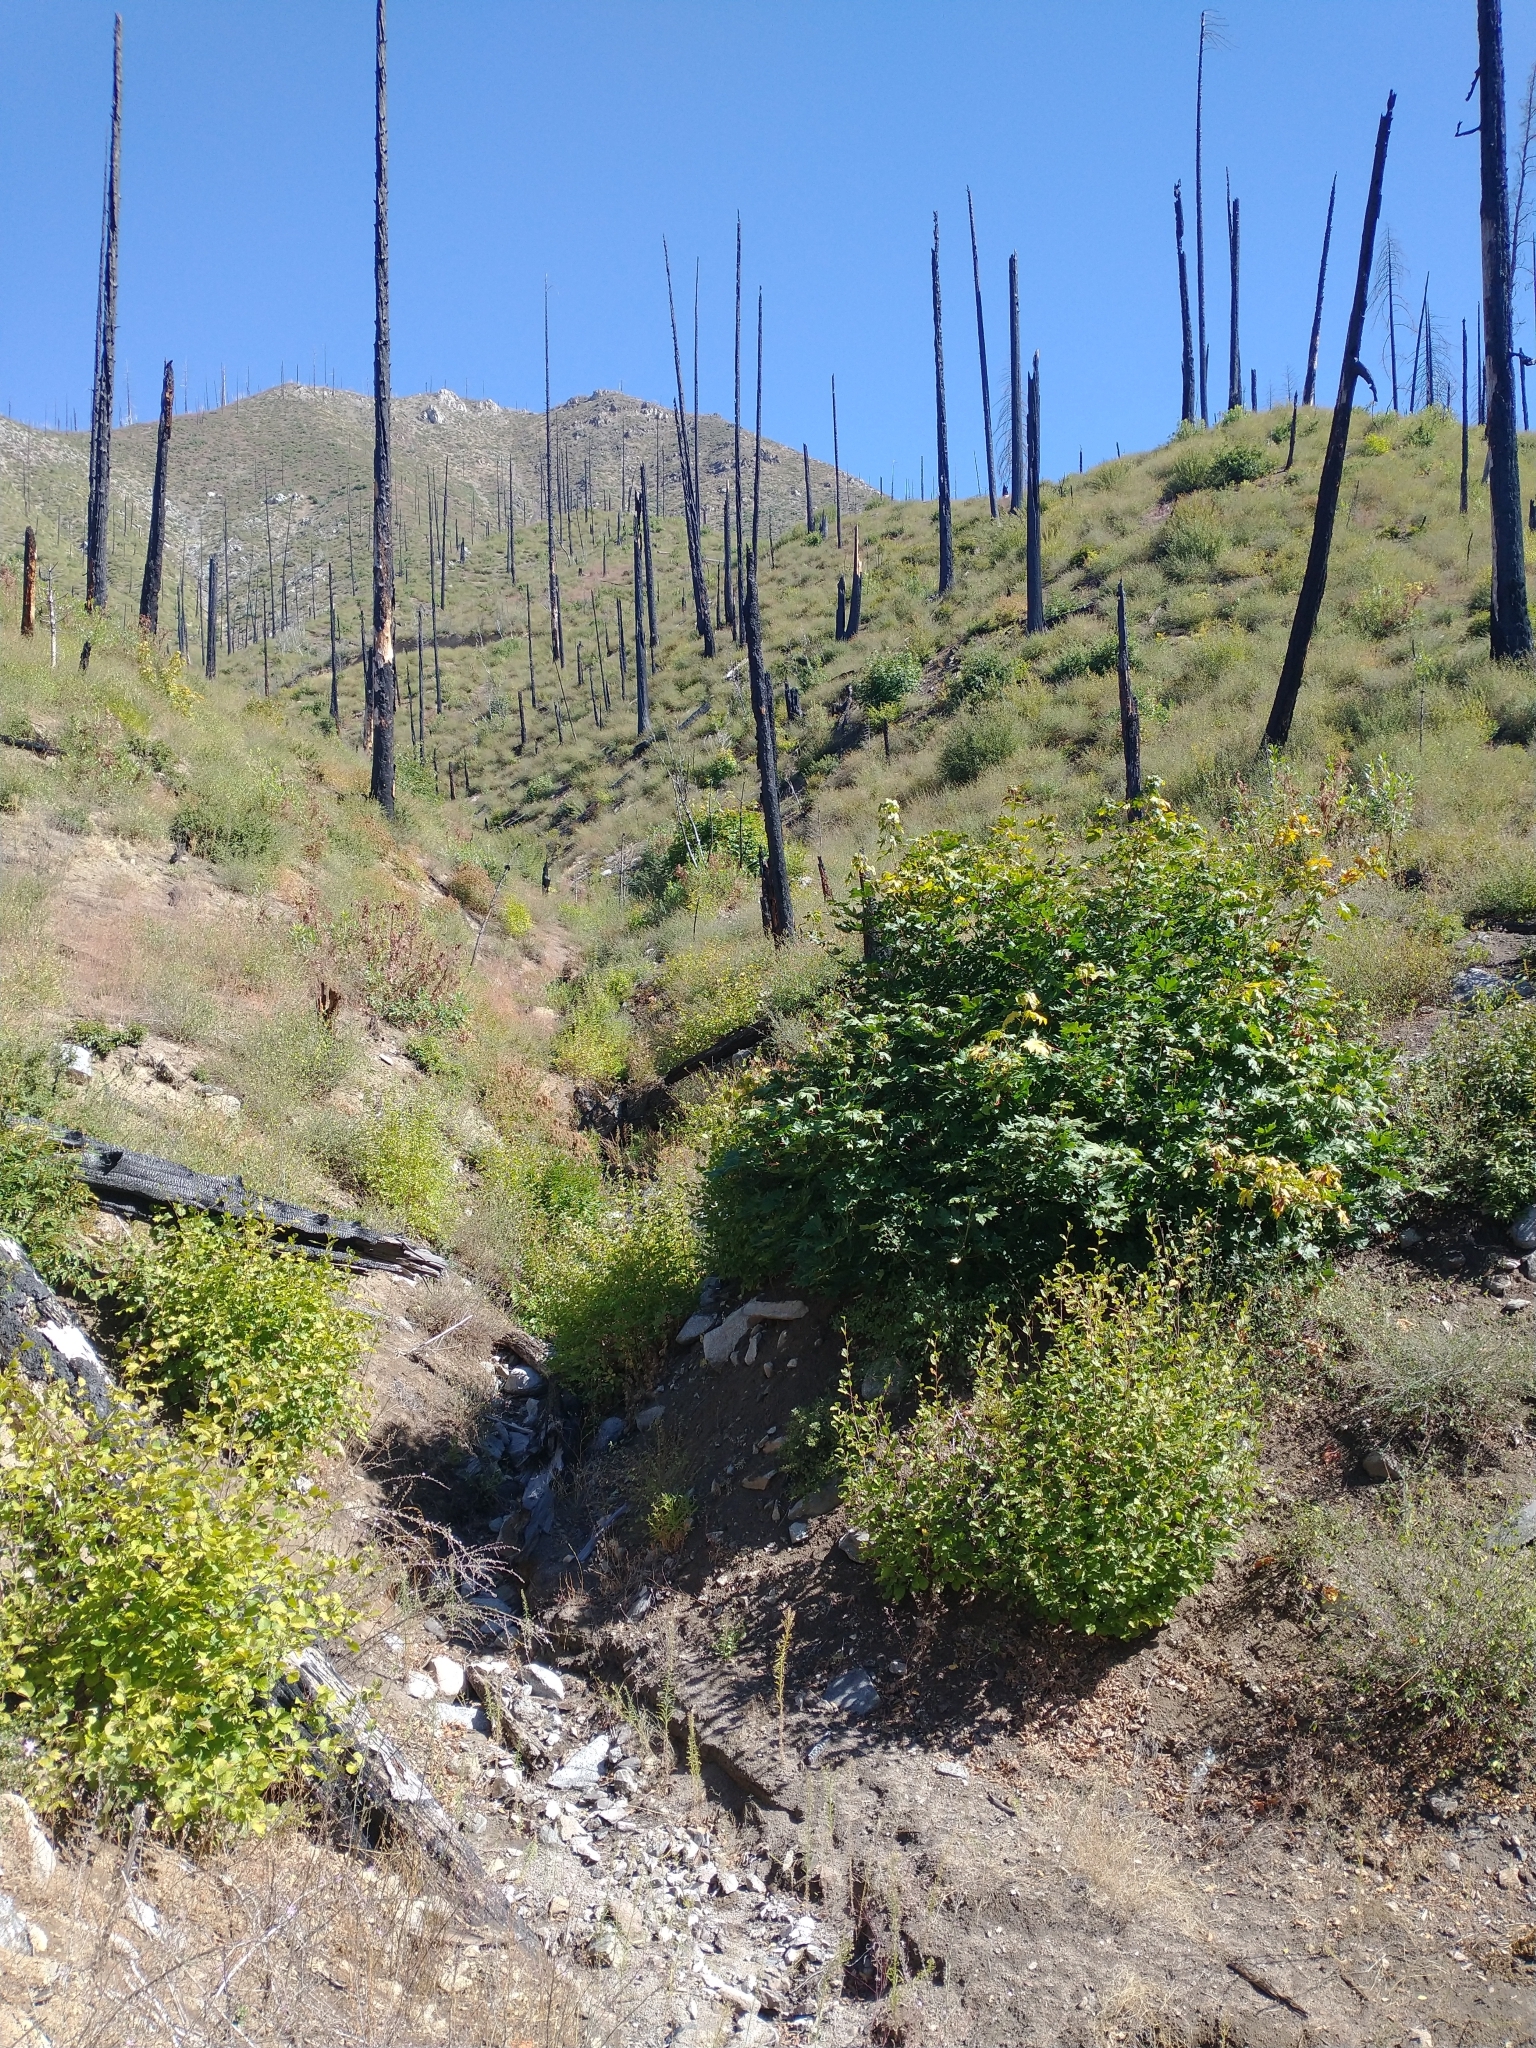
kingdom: Plantae
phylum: Tracheophyta
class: Magnoliopsida
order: Sapindales
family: Sapindaceae
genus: Acer
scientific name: Acer macrophyllum
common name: Oregon maple
